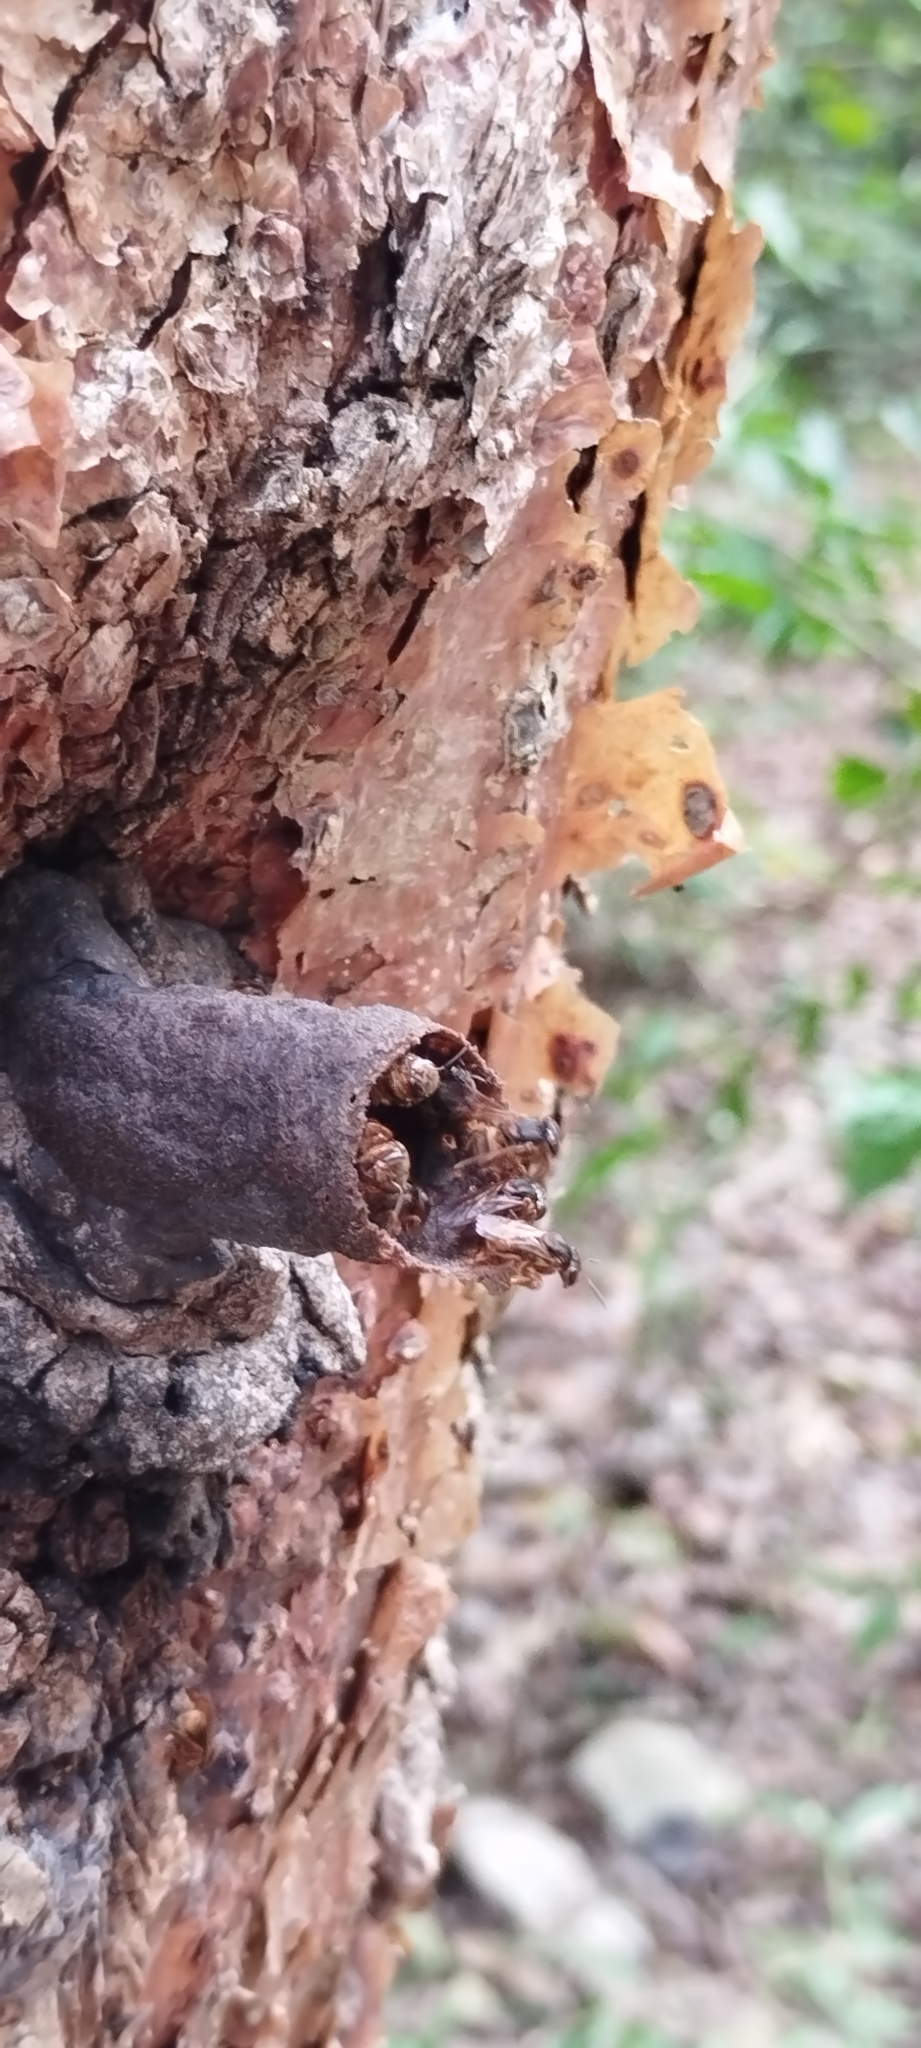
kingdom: Animalia
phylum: Arthropoda
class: Insecta
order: Hymenoptera
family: Apidae
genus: Scaptotrigona
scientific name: Scaptotrigona pectoralis
